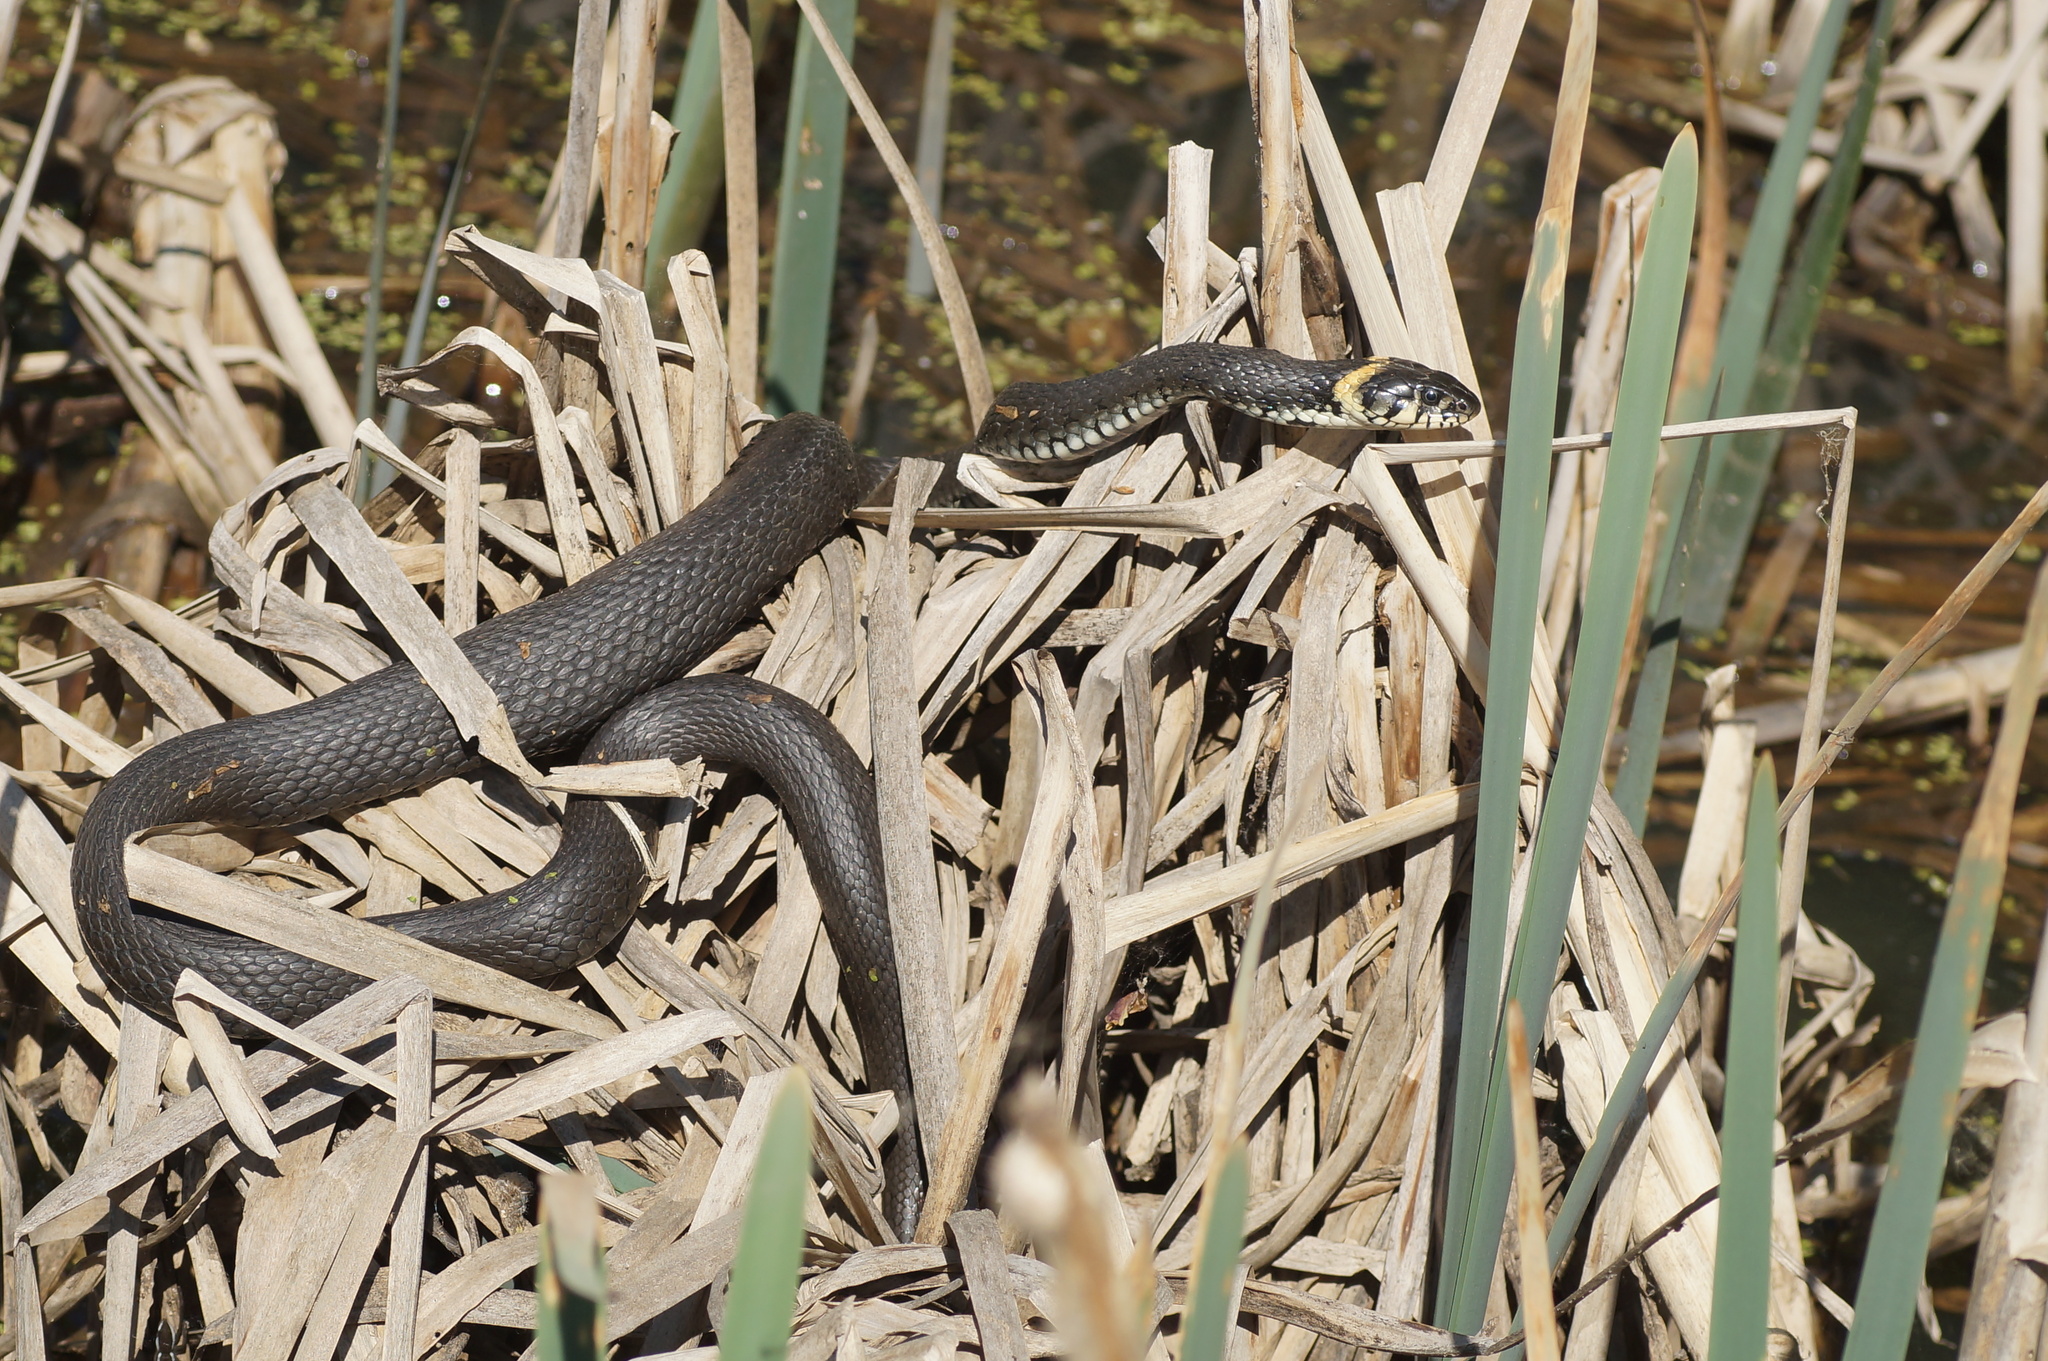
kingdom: Animalia
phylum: Chordata
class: Squamata
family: Colubridae
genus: Natrix
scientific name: Natrix natrix
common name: Grass snake
